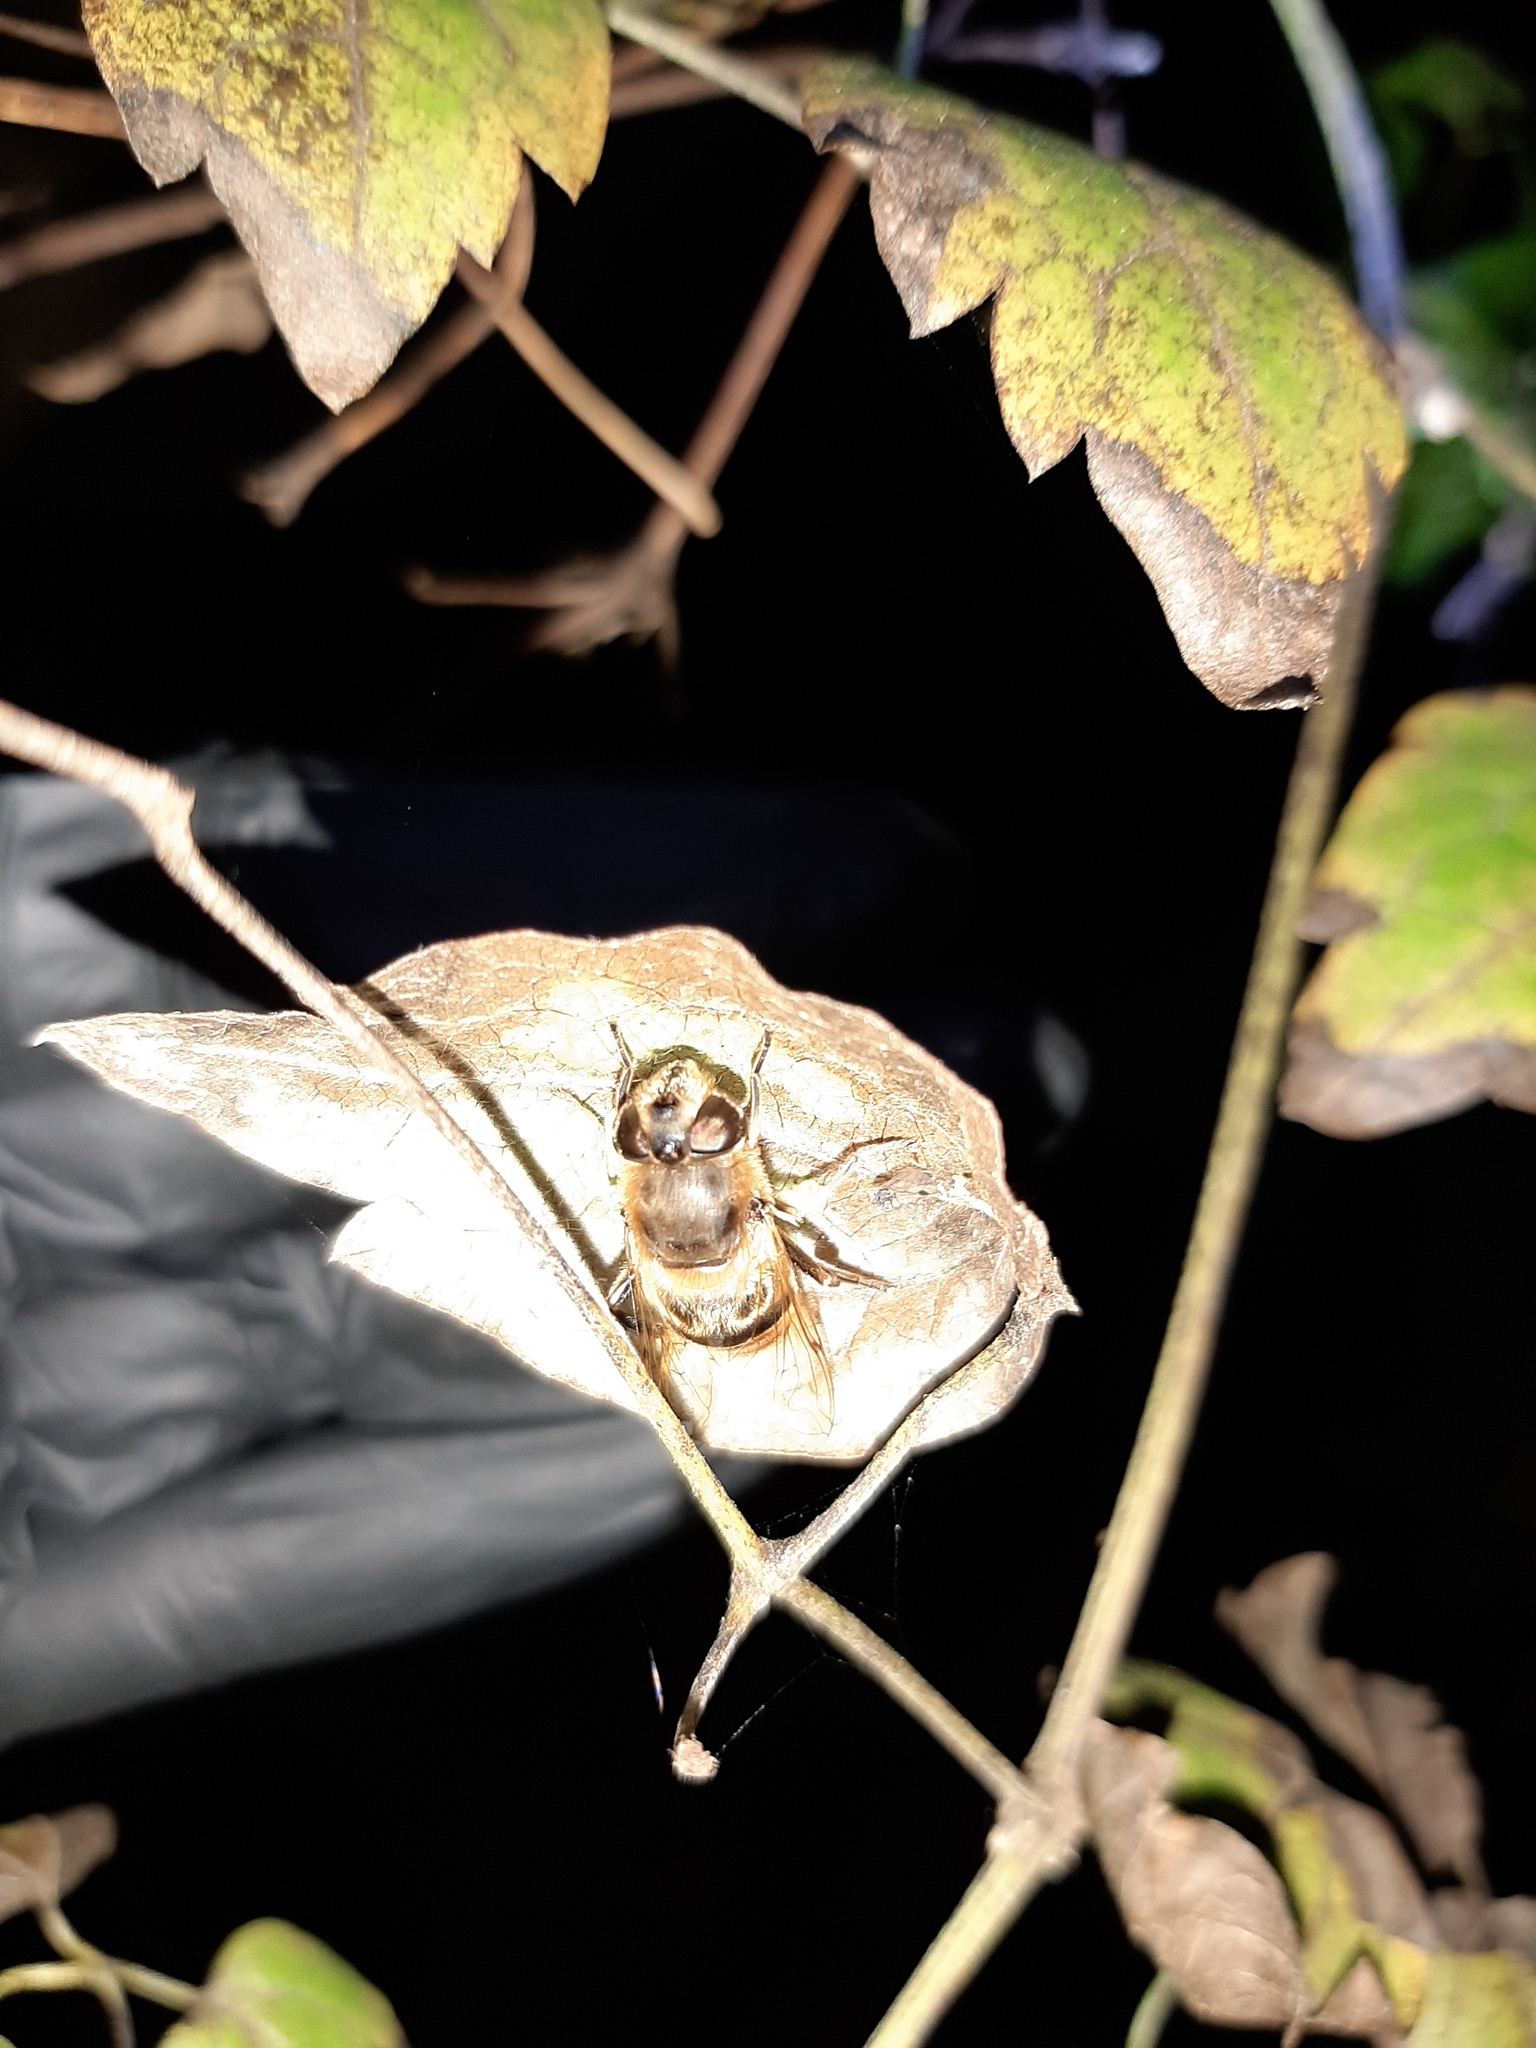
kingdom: Animalia
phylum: Arthropoda
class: Insecta
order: Diptera
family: Syrphidae
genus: Eristalis
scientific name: Eristalis tenax
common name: Drone fly
